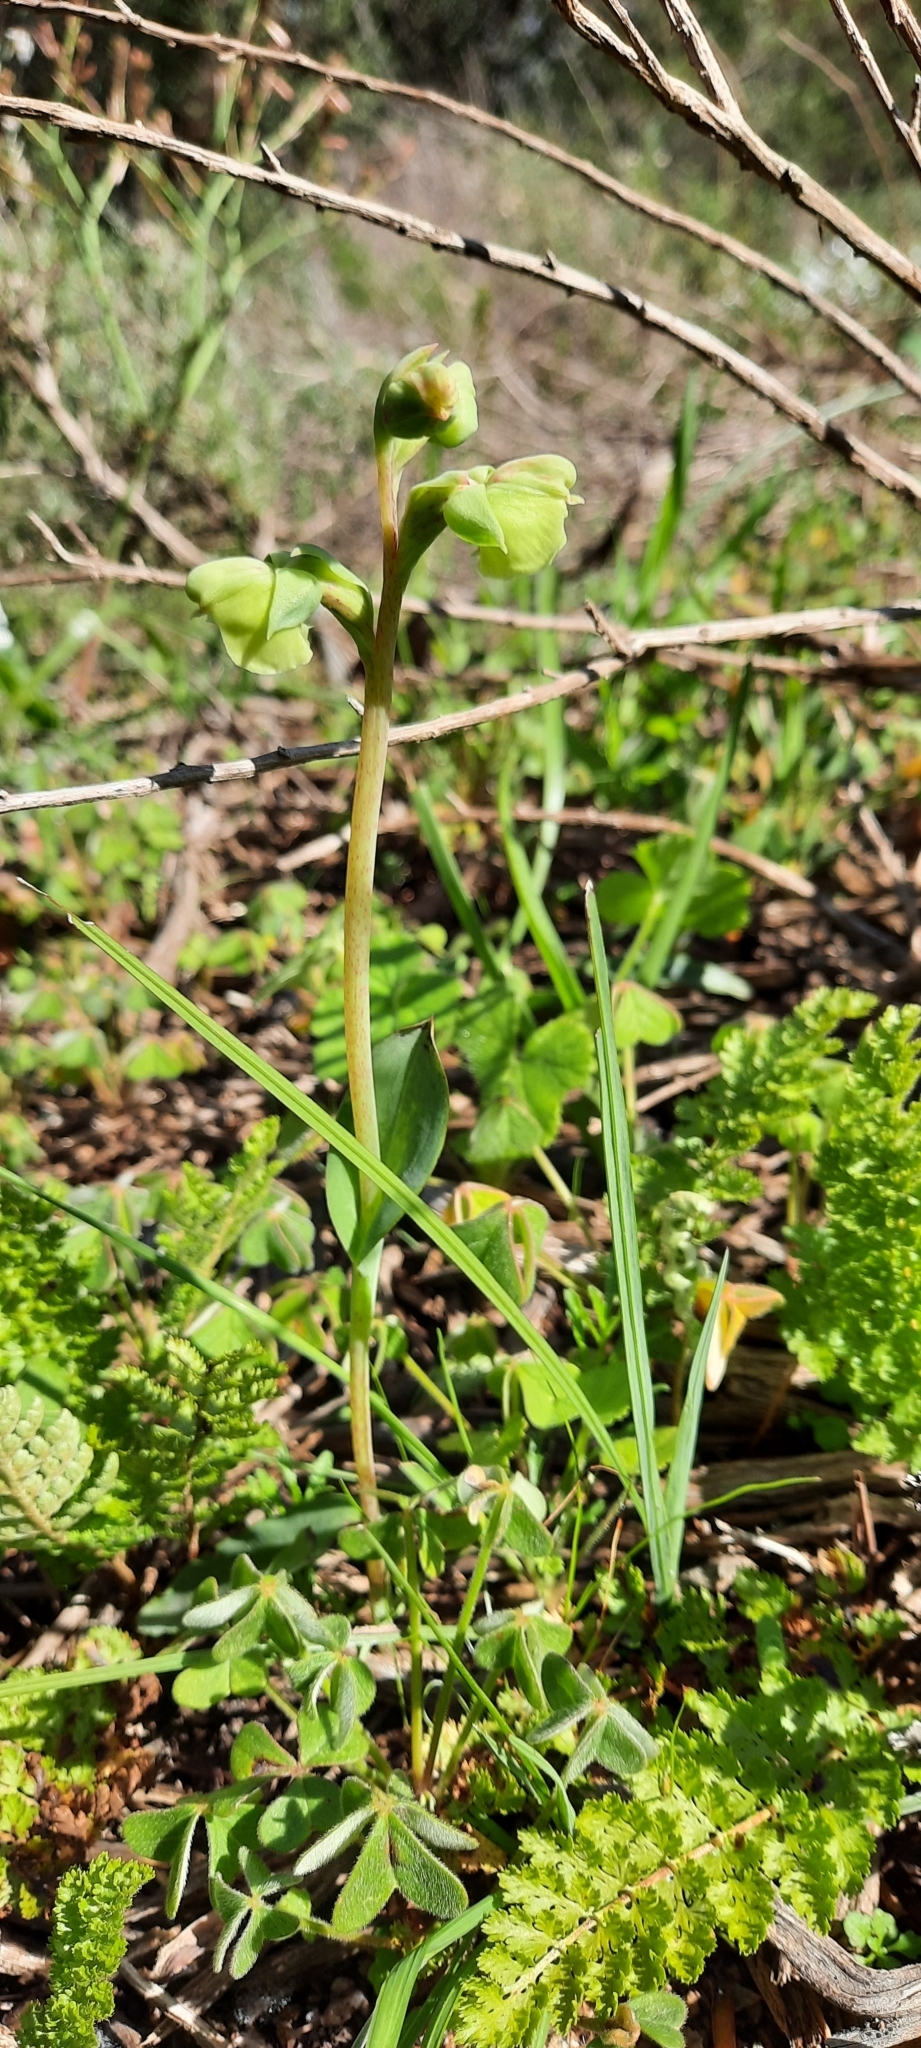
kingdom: Plantae
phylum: Tracheophyta
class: Liliopsida
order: Asparagales
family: Orchidaceae
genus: Pterygodium
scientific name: Pterygodium catholicum
